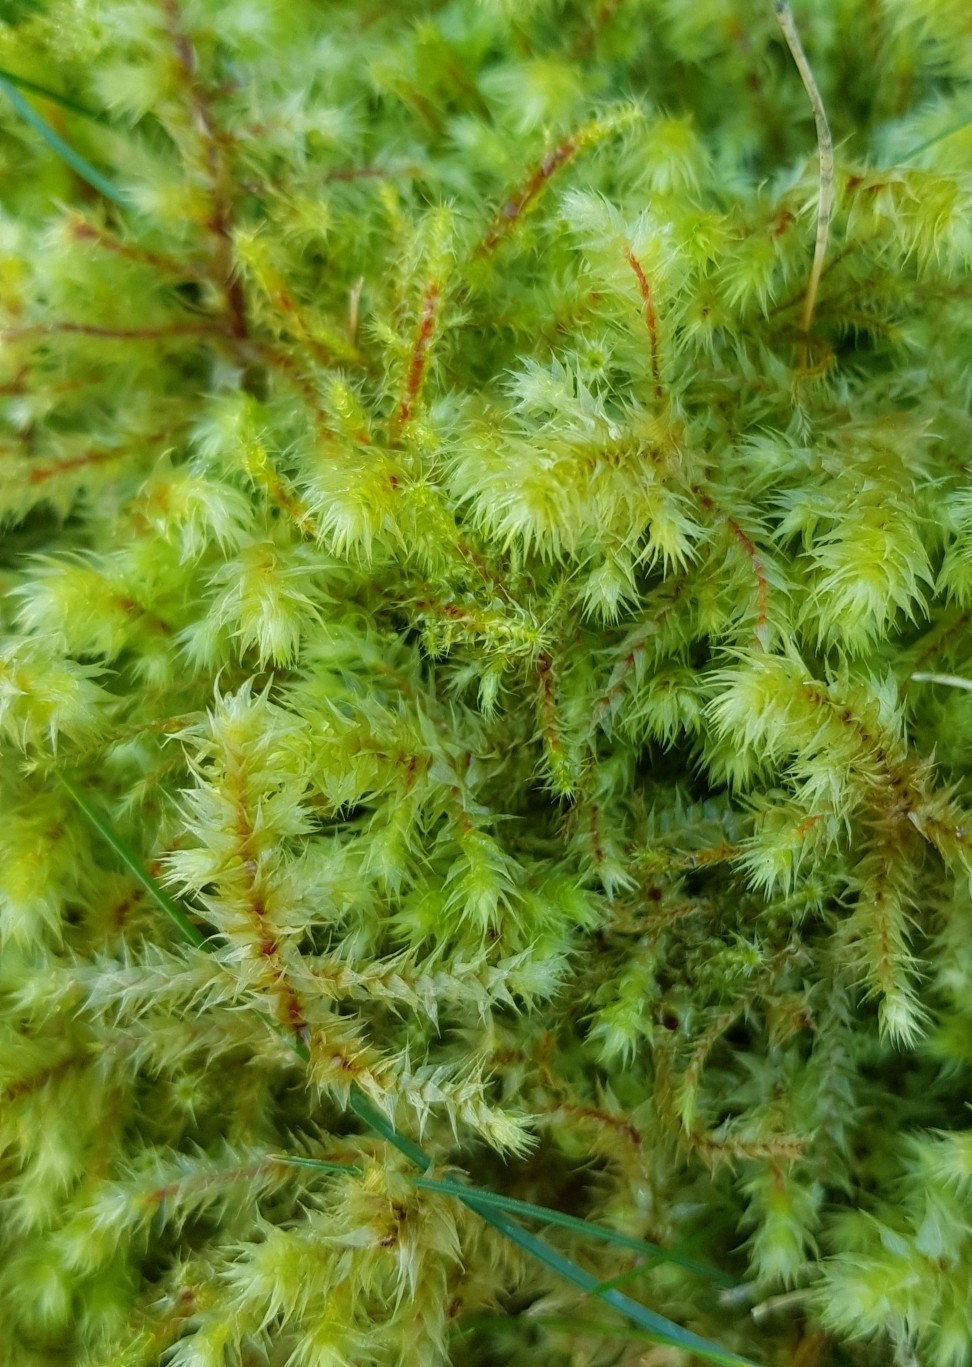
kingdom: Plantae
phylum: Bryophyta
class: Bryopsida
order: Hypnales
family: Hylocomiaceae
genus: Hylocomiadelphus
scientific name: Hylocomiadelphus triquetrus
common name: Rough goose neck moss
